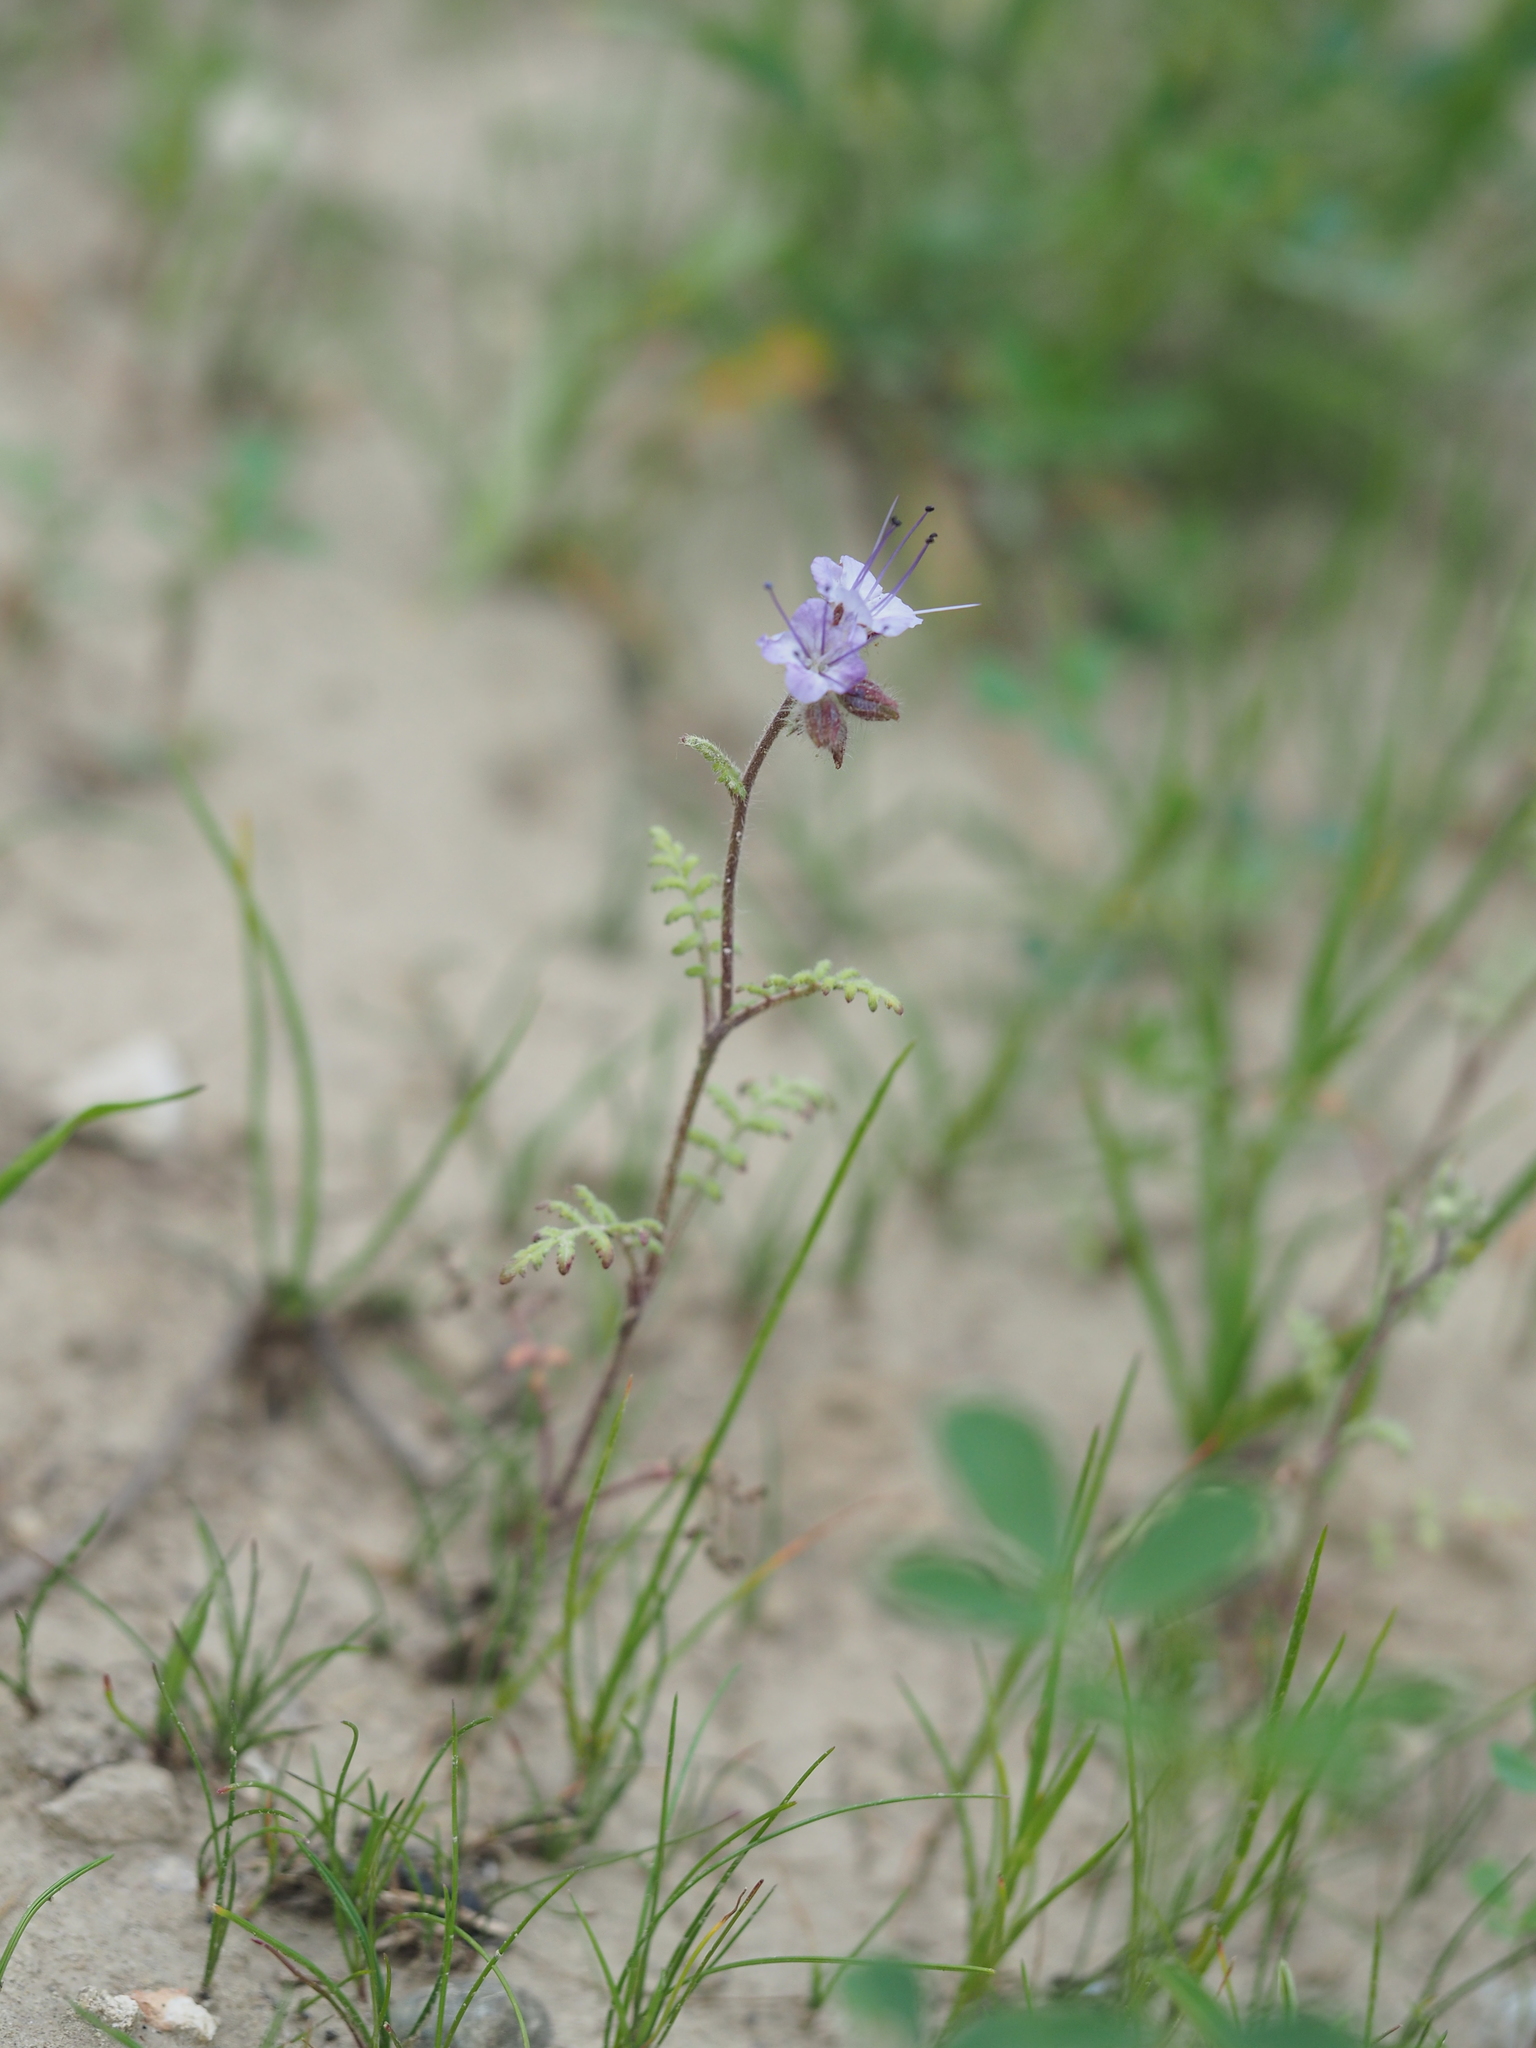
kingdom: Plantae
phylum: Tracheophyta
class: Magnoliopsida
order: Boraginales
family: Hydrophyllaceae
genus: Phacelia
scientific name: Phacelia tanacetifolia
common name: Phacelia
